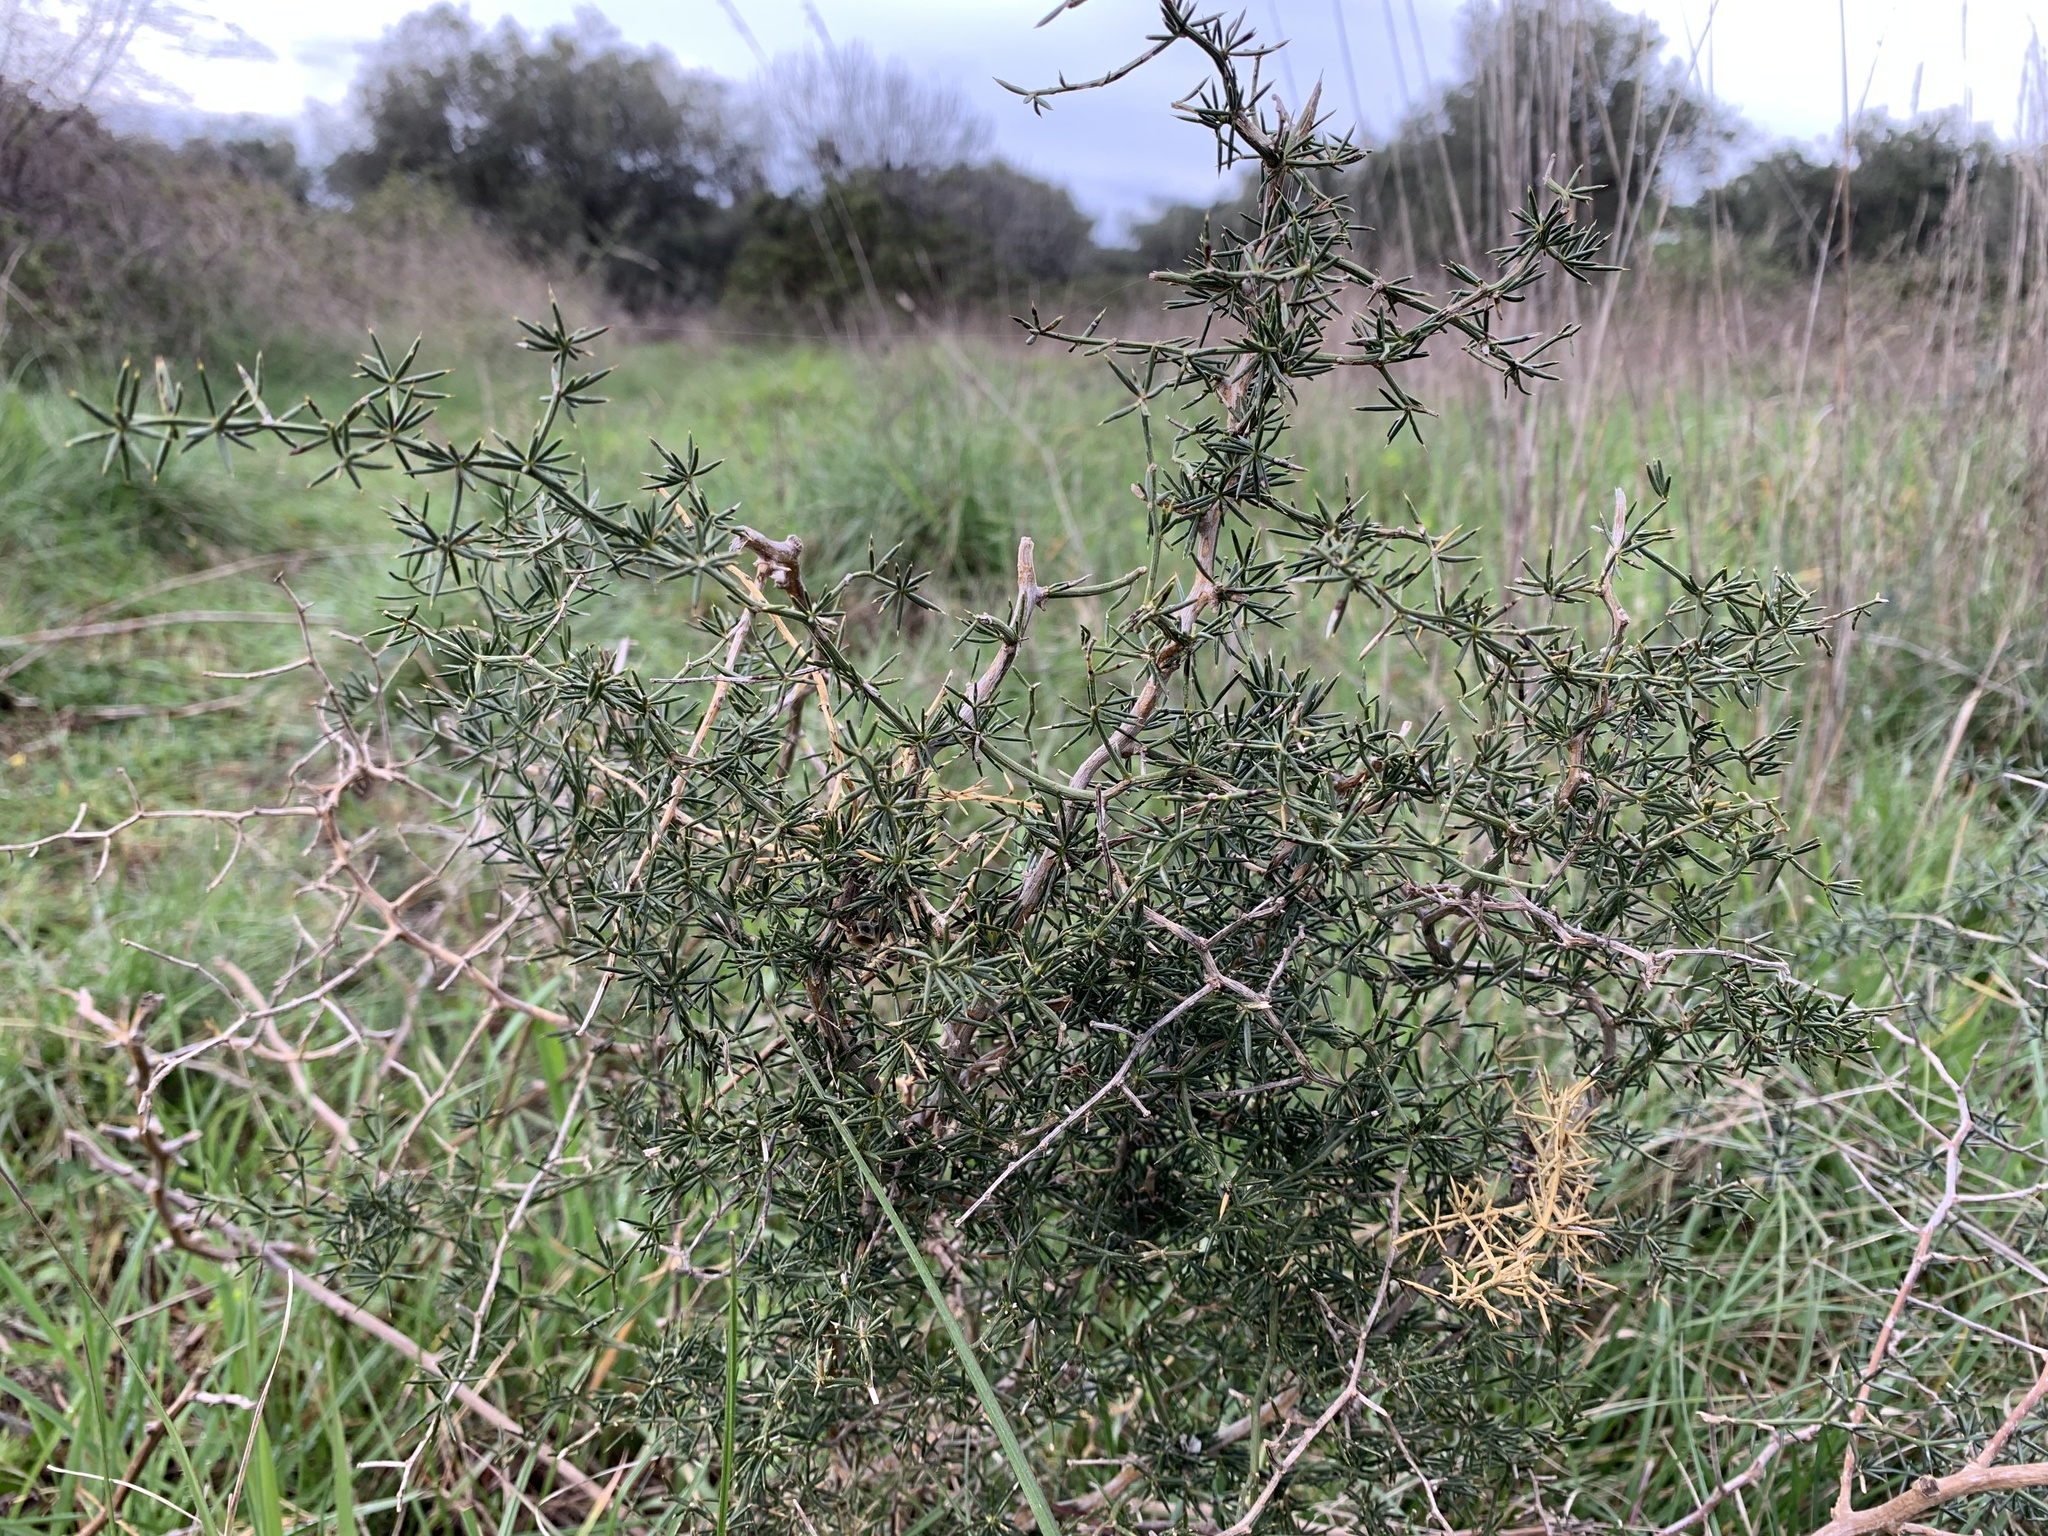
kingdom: Plantae
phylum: Tracheophyta
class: Liliopsida
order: Asparagales
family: Asparagaceae
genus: Asparagus
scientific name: Asparagus acutifolius
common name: Wild asparagus
